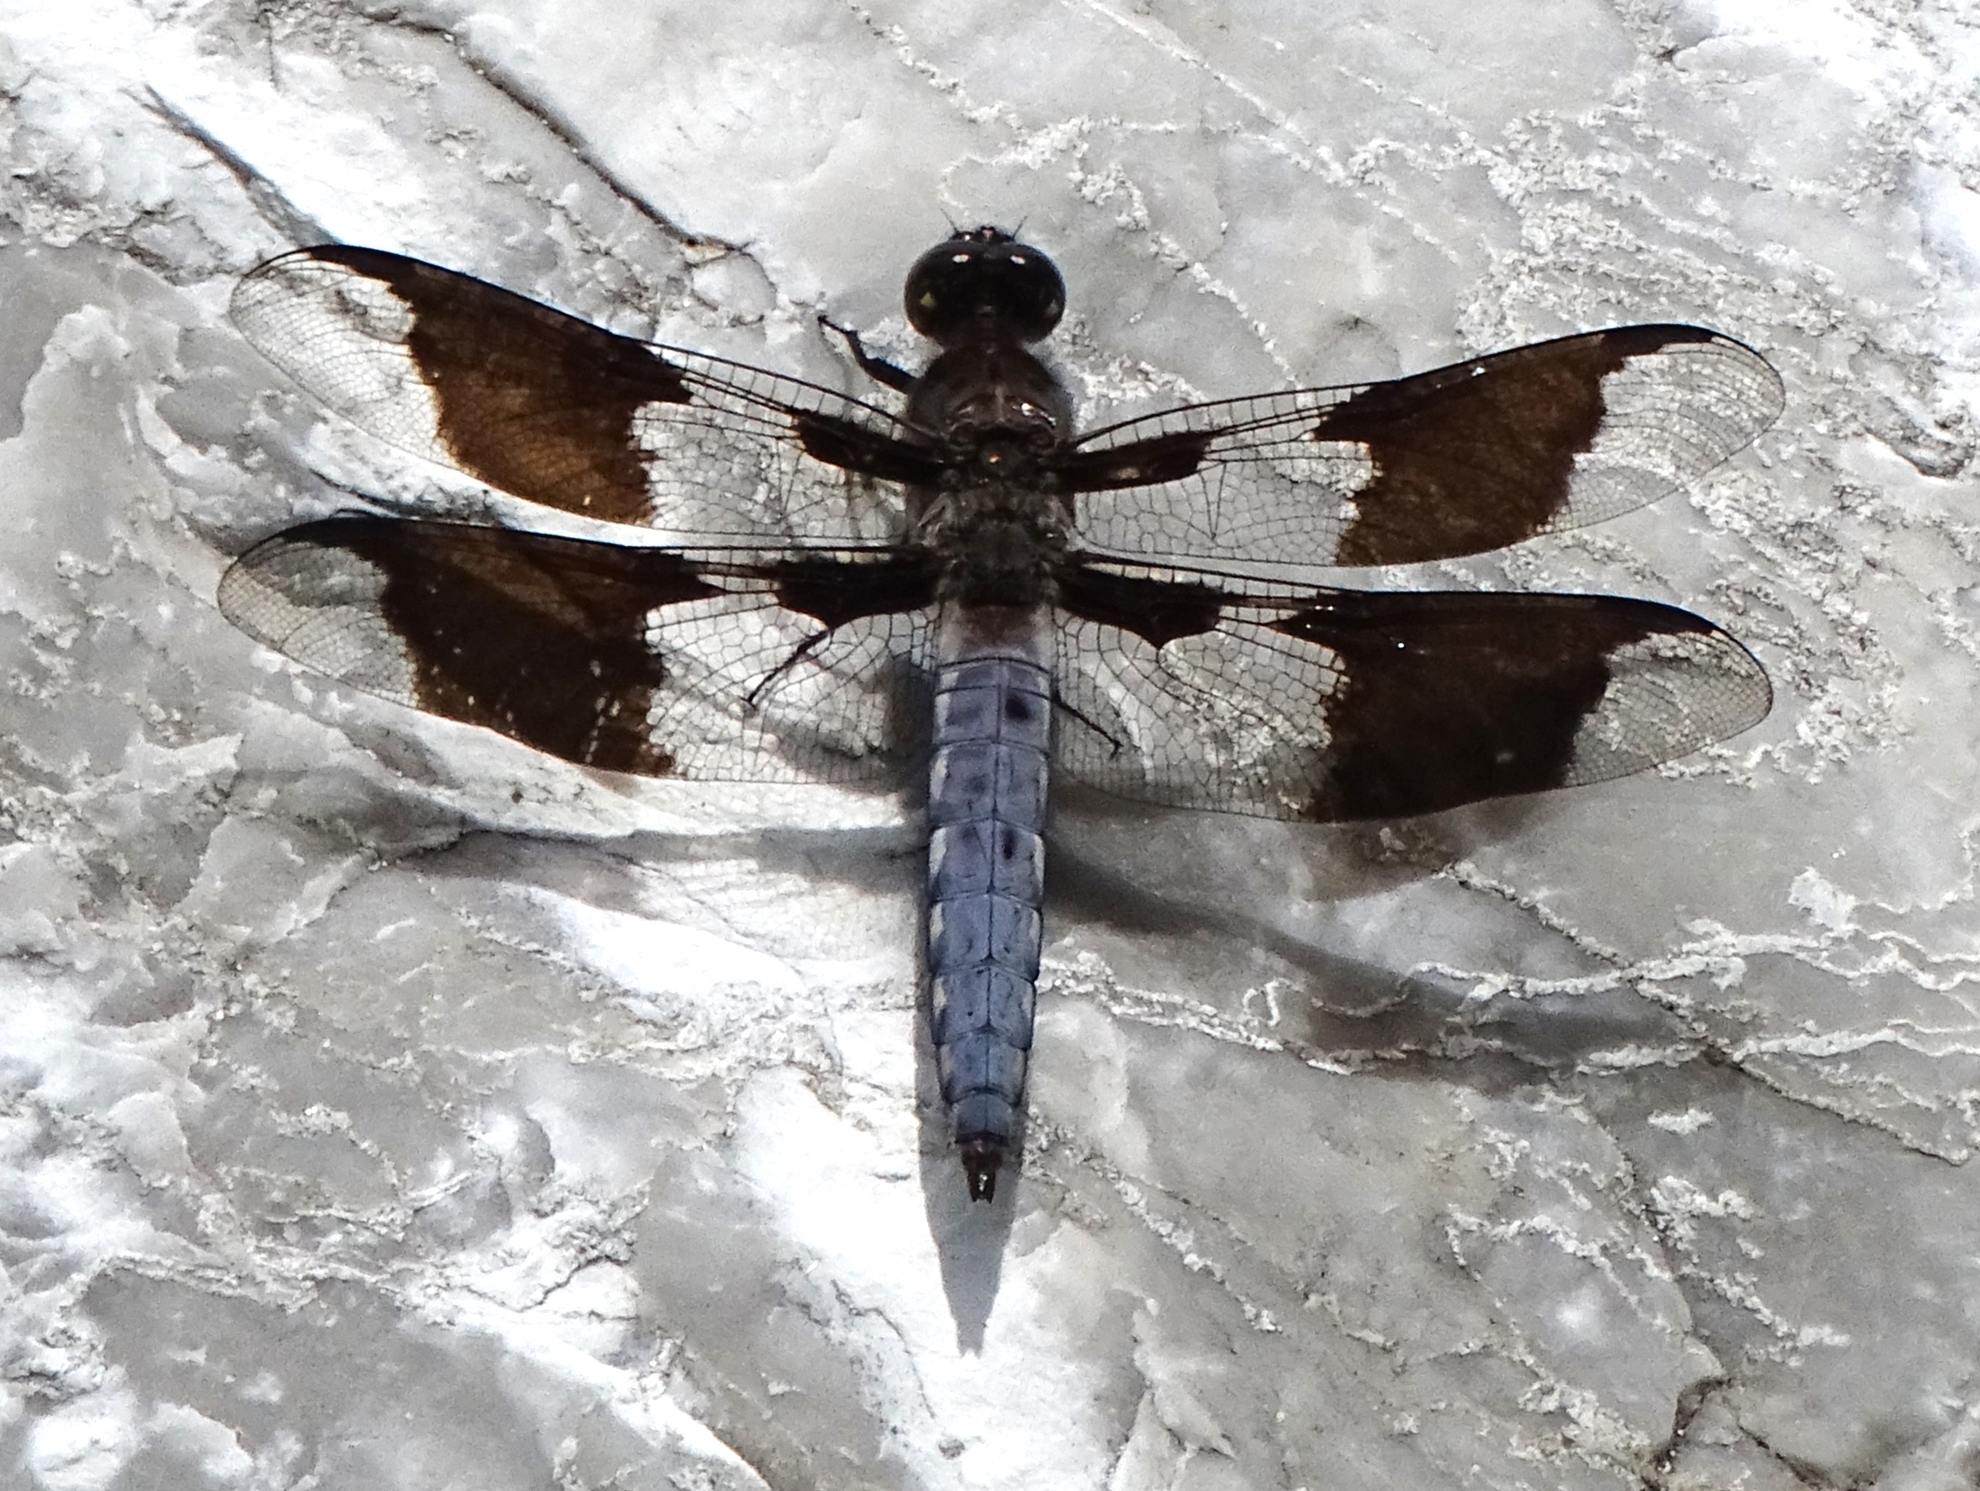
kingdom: Animalia
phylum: Arthropoda
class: Insecta
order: Odonata
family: Libellulidae
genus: Plathemis
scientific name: Plathemis lydia
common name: Common whitetail
